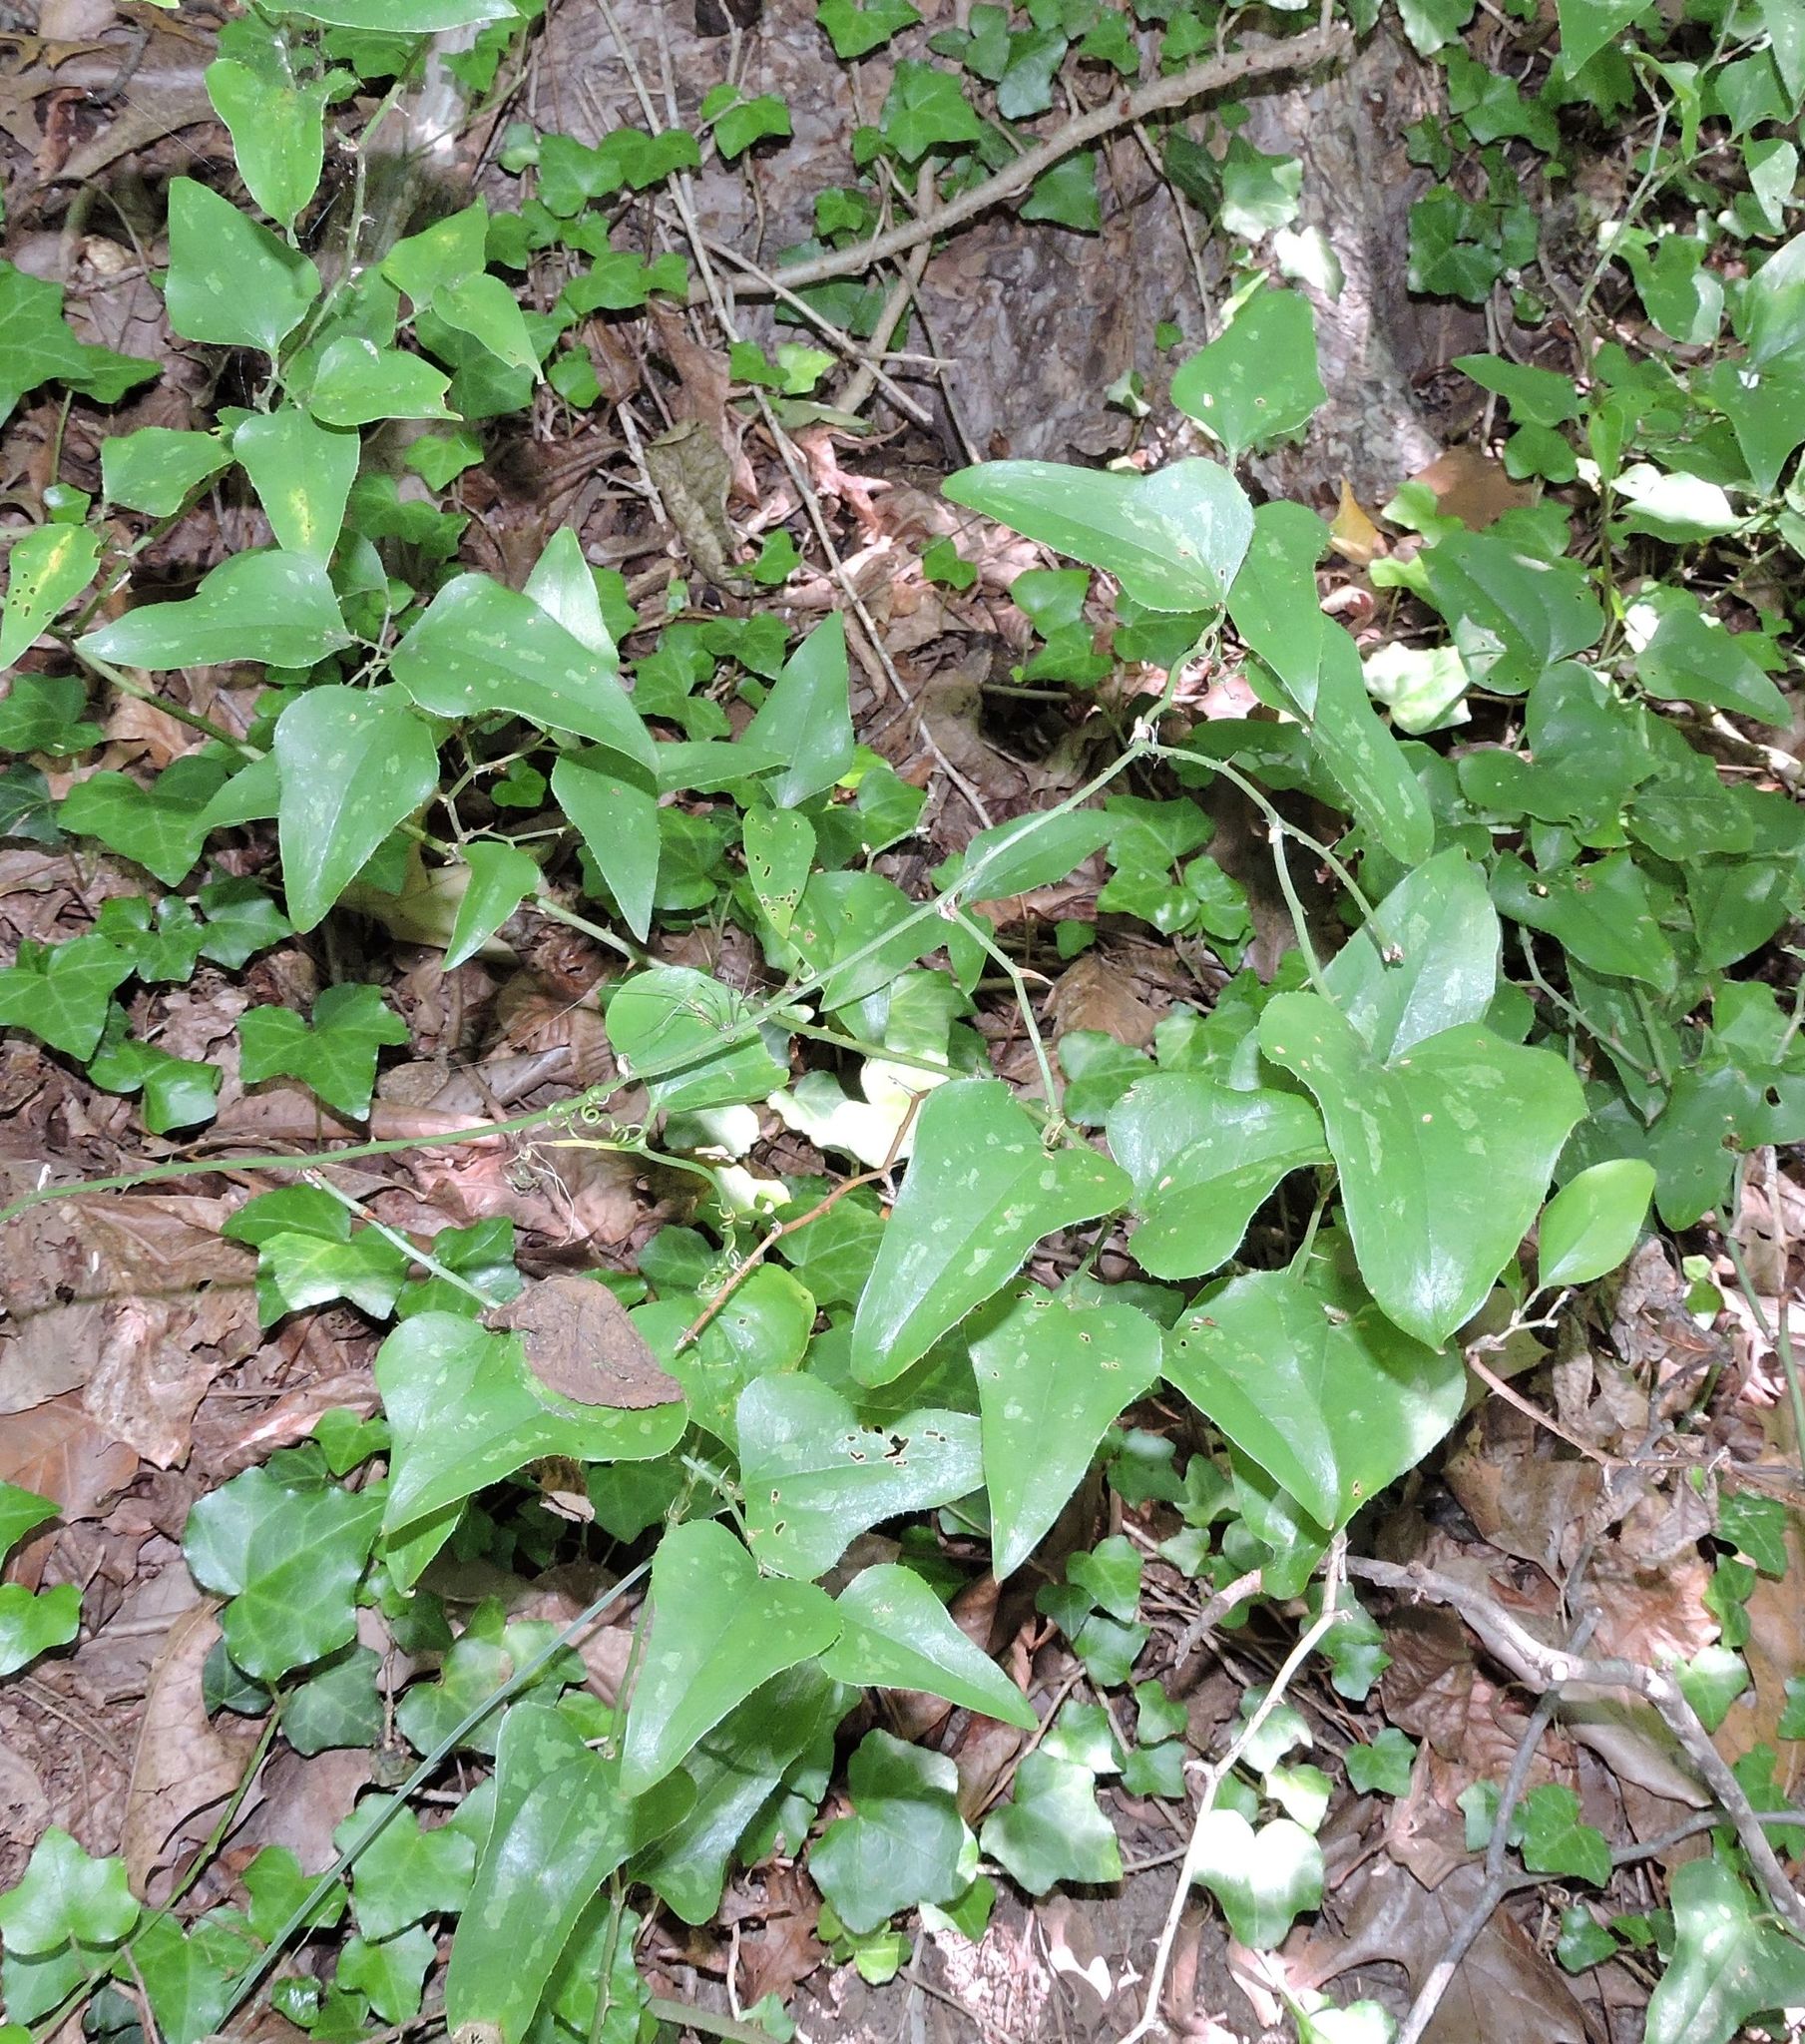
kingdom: Plantae
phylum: Tracheophyta
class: Liliopsida
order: Liliales
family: Smilacaceae
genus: Smilax
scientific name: Smilax bona-nox
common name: Catbrier
